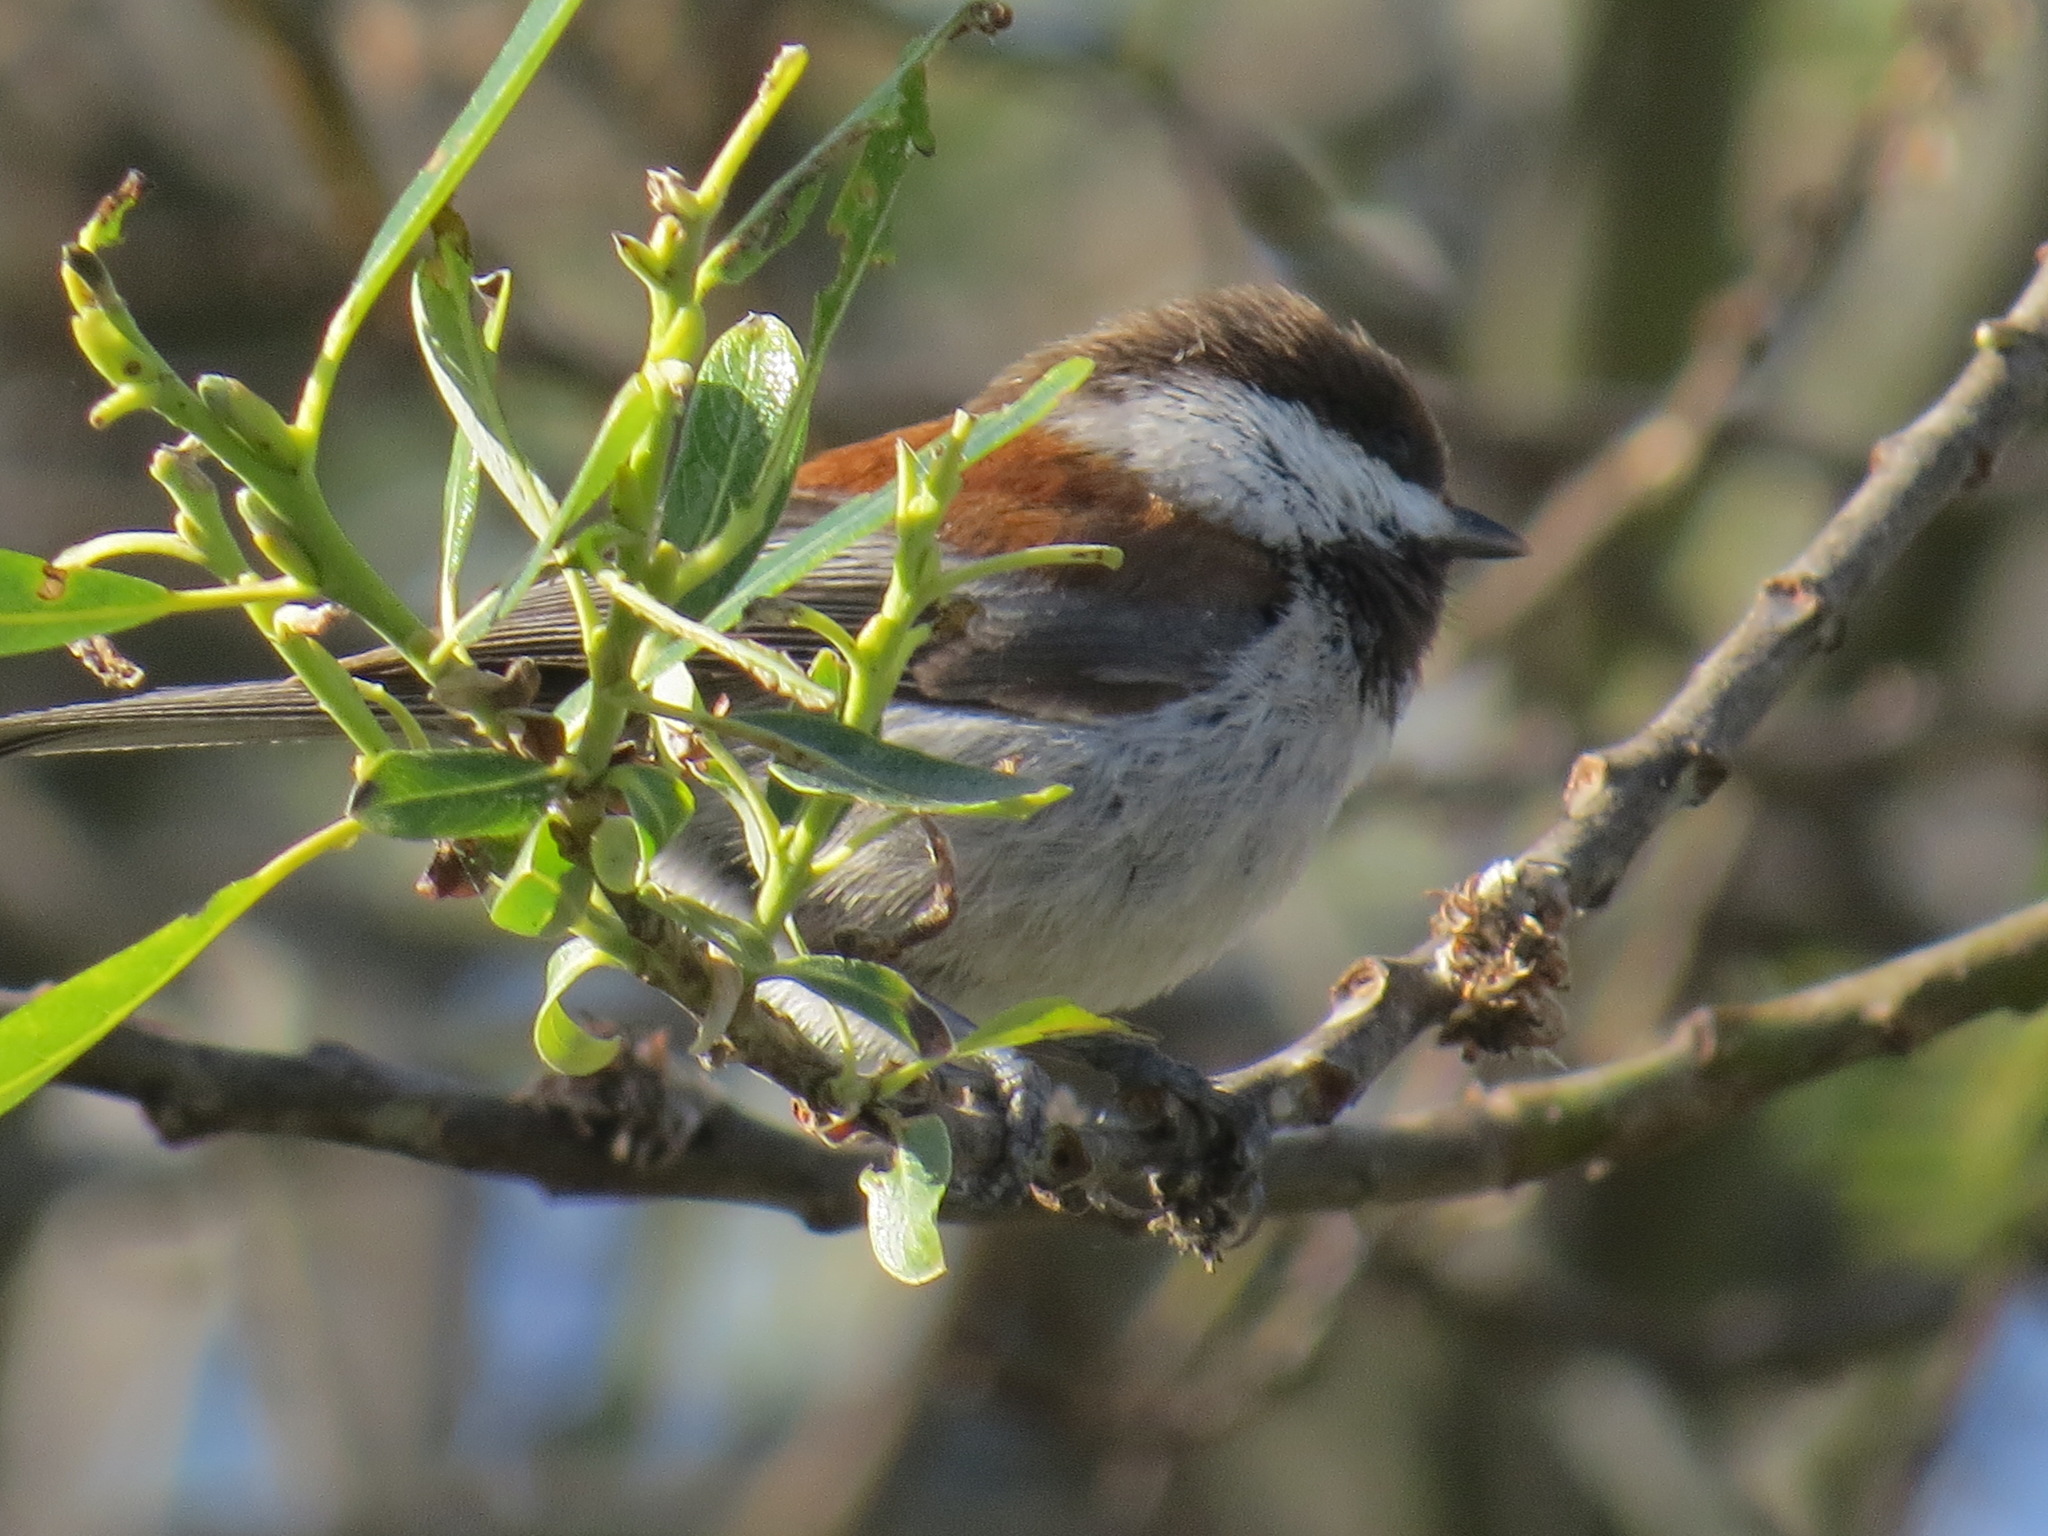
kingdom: Animalia
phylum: Chordata
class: Aves
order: Passeriformes
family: Paridae
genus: Poecile
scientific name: Poecile rufescens
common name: Chestnut-backed chickadee
